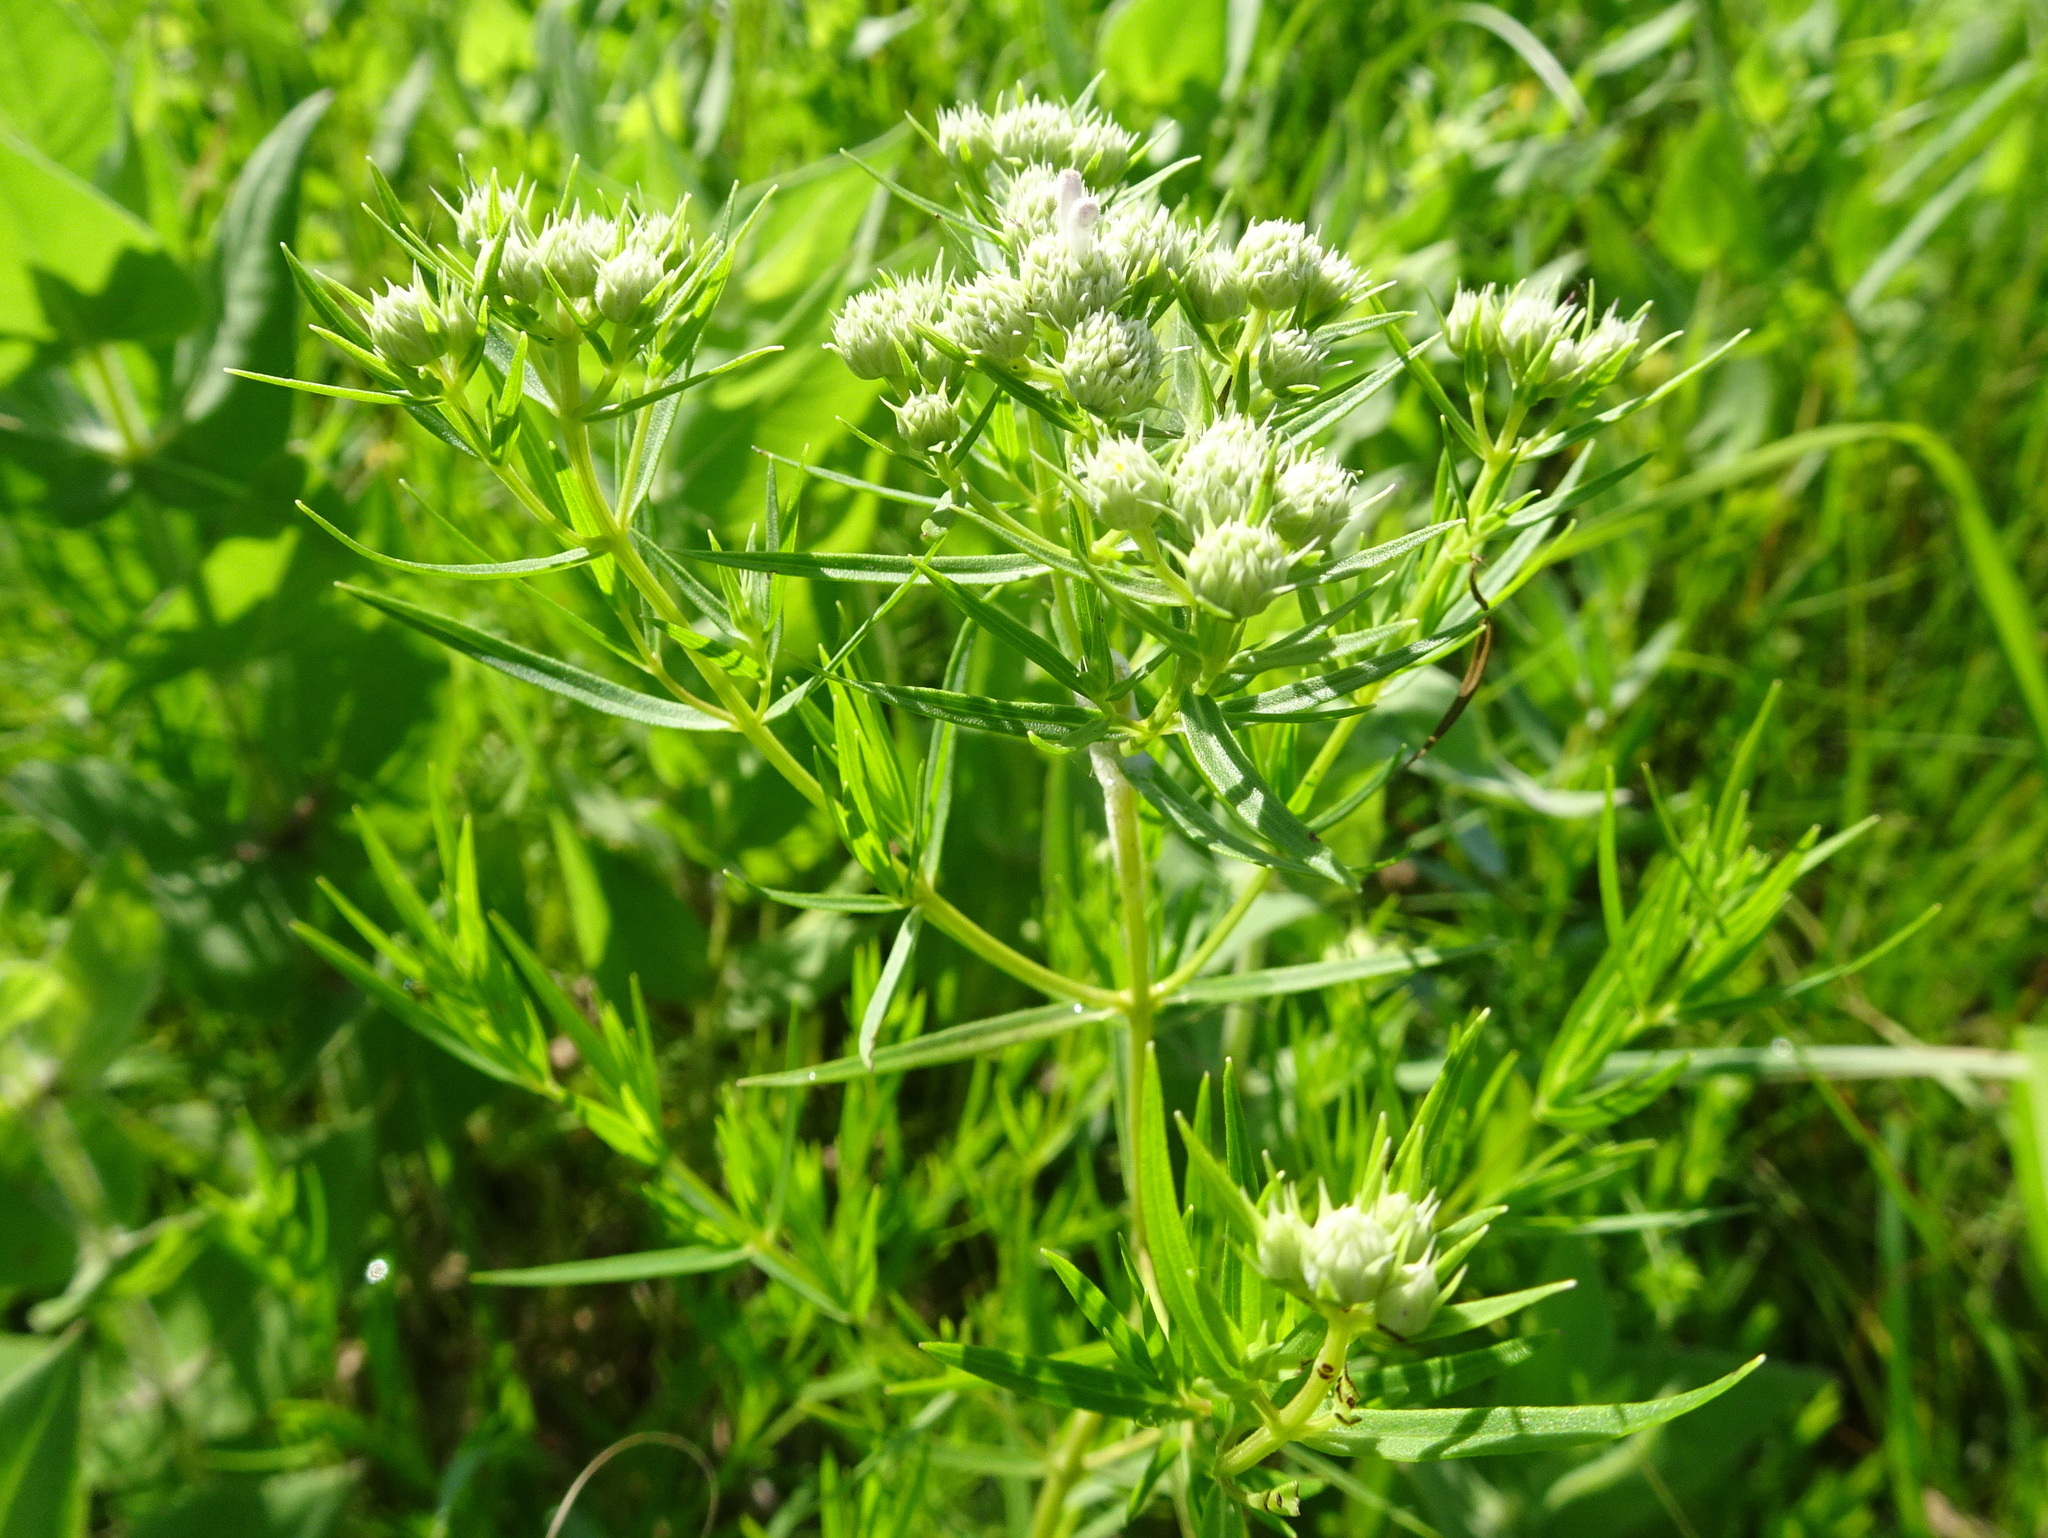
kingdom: Plantae
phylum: Tracheophyta
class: Magnoliopsida
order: Lamiales
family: Lamiaceae
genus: Pycnanthemum
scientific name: Pycnanthemum tenuifolium
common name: Narrow-leaf mountain-mint
